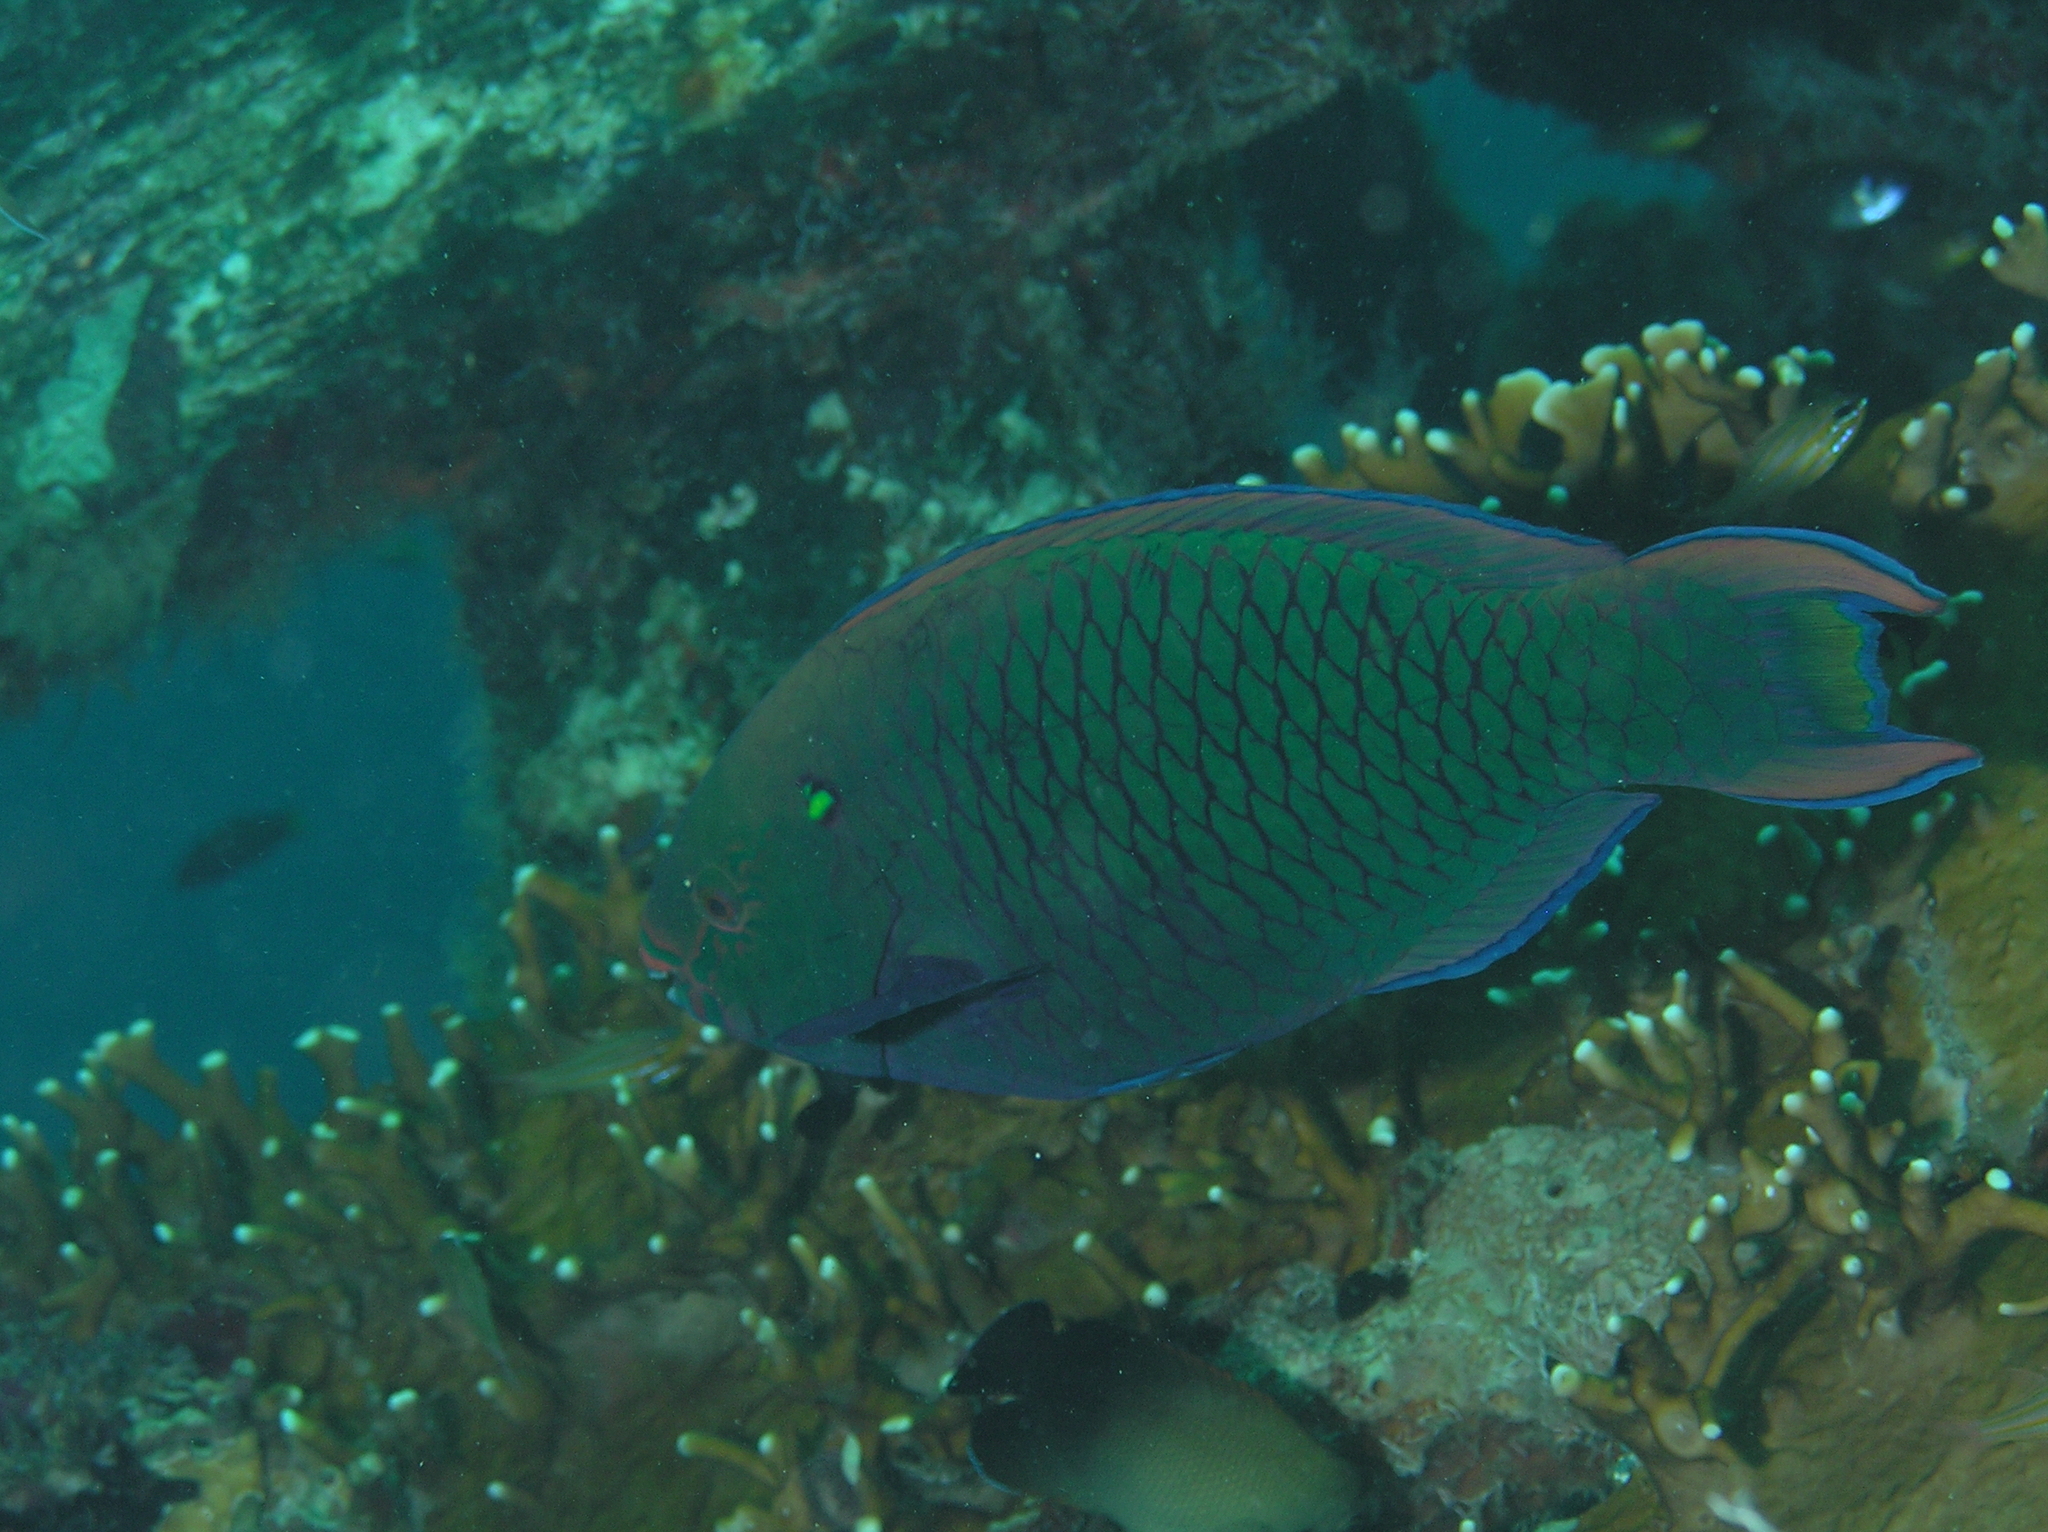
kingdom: Animalia
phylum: Chordata
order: Perciformes
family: Scaridae
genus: Scarus
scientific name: Scarus niger
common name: Dusky parrotfish
